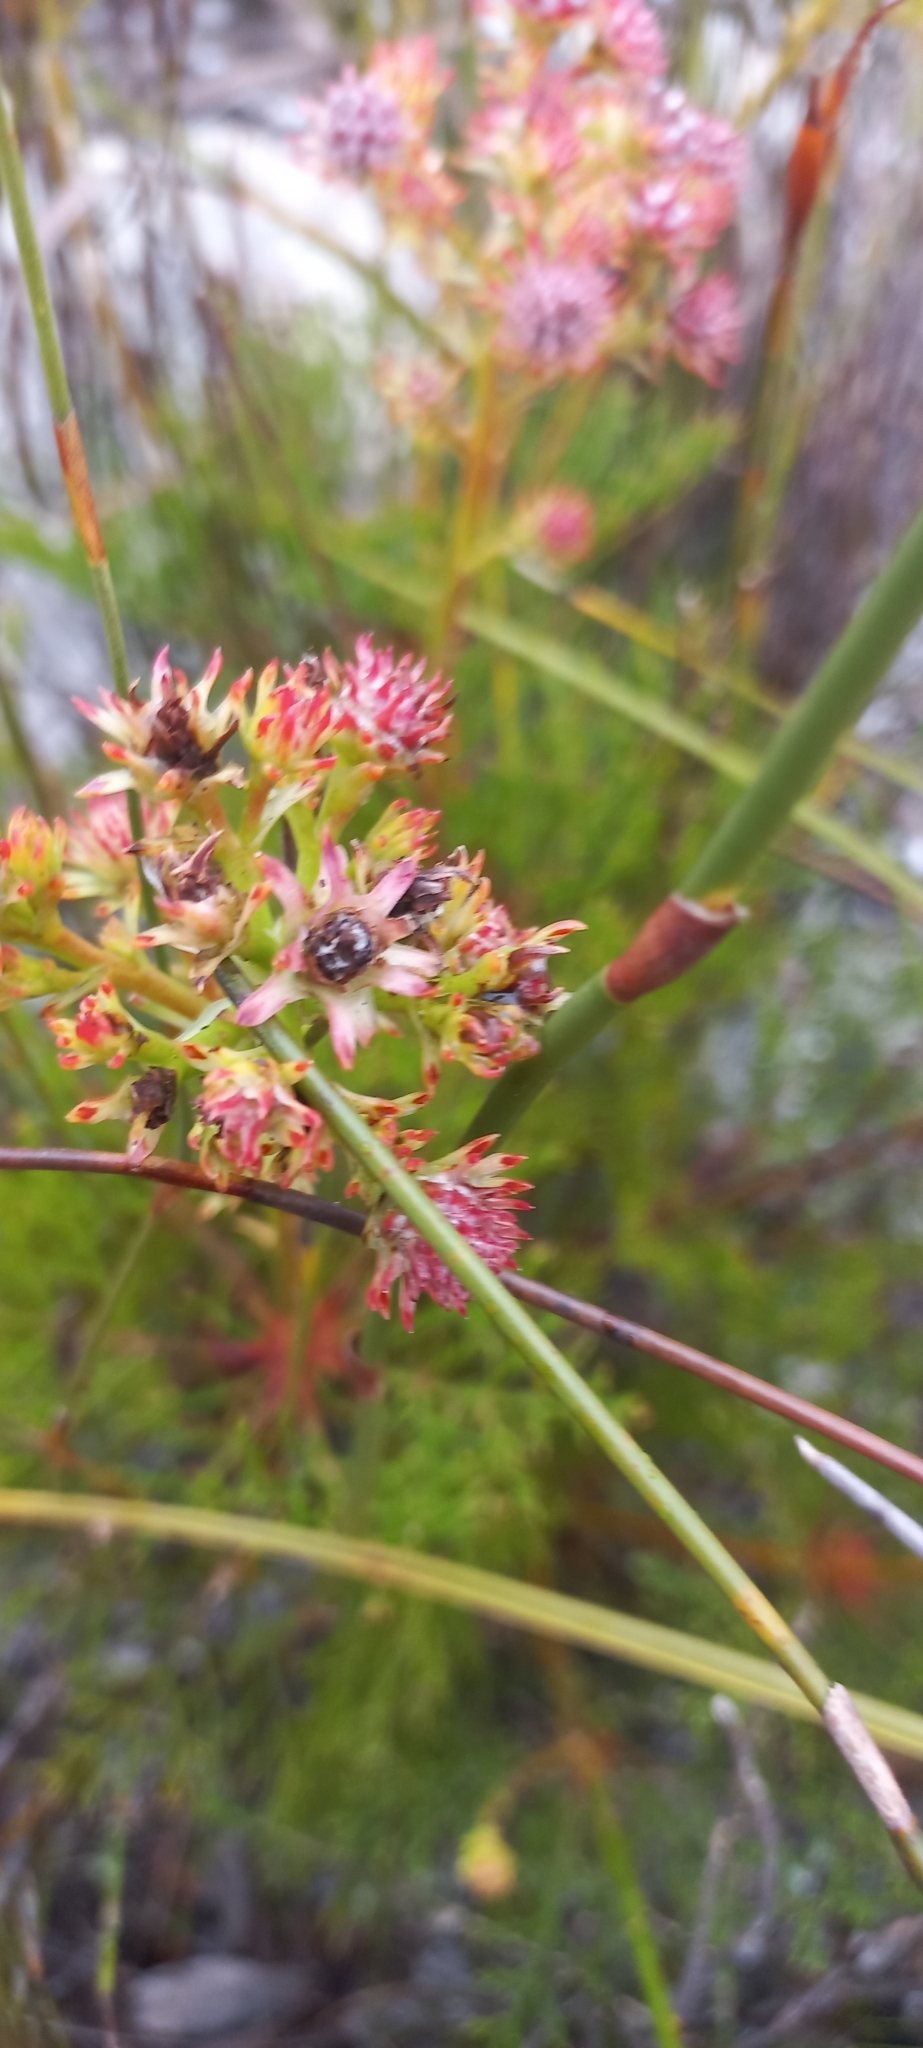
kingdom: Plantae
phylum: Tracheophyta
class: Magnoliopsida
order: Proteales
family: Proteaceae
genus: Serruria
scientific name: Serruria elongata
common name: Long-stalk spiderhead
